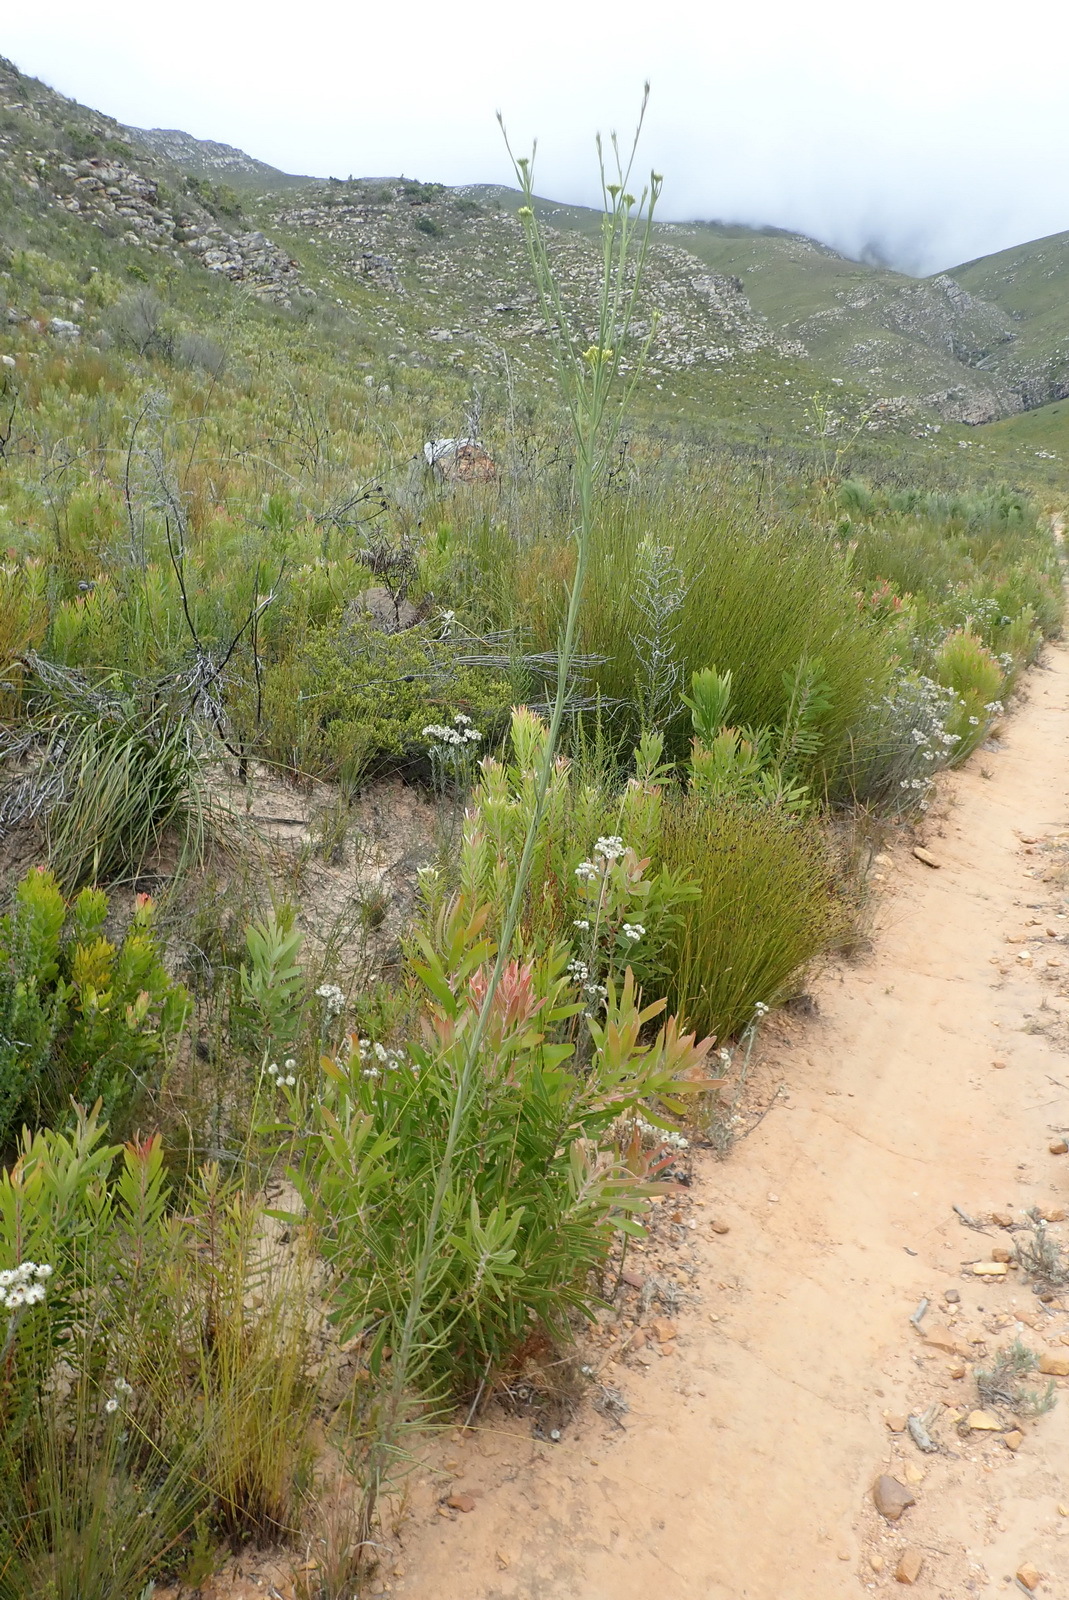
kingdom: Plantae
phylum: Tracheophyta
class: Magnoliopsida
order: Santalales
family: Thesiaceae
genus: Thesium
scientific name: Thesium strictum
